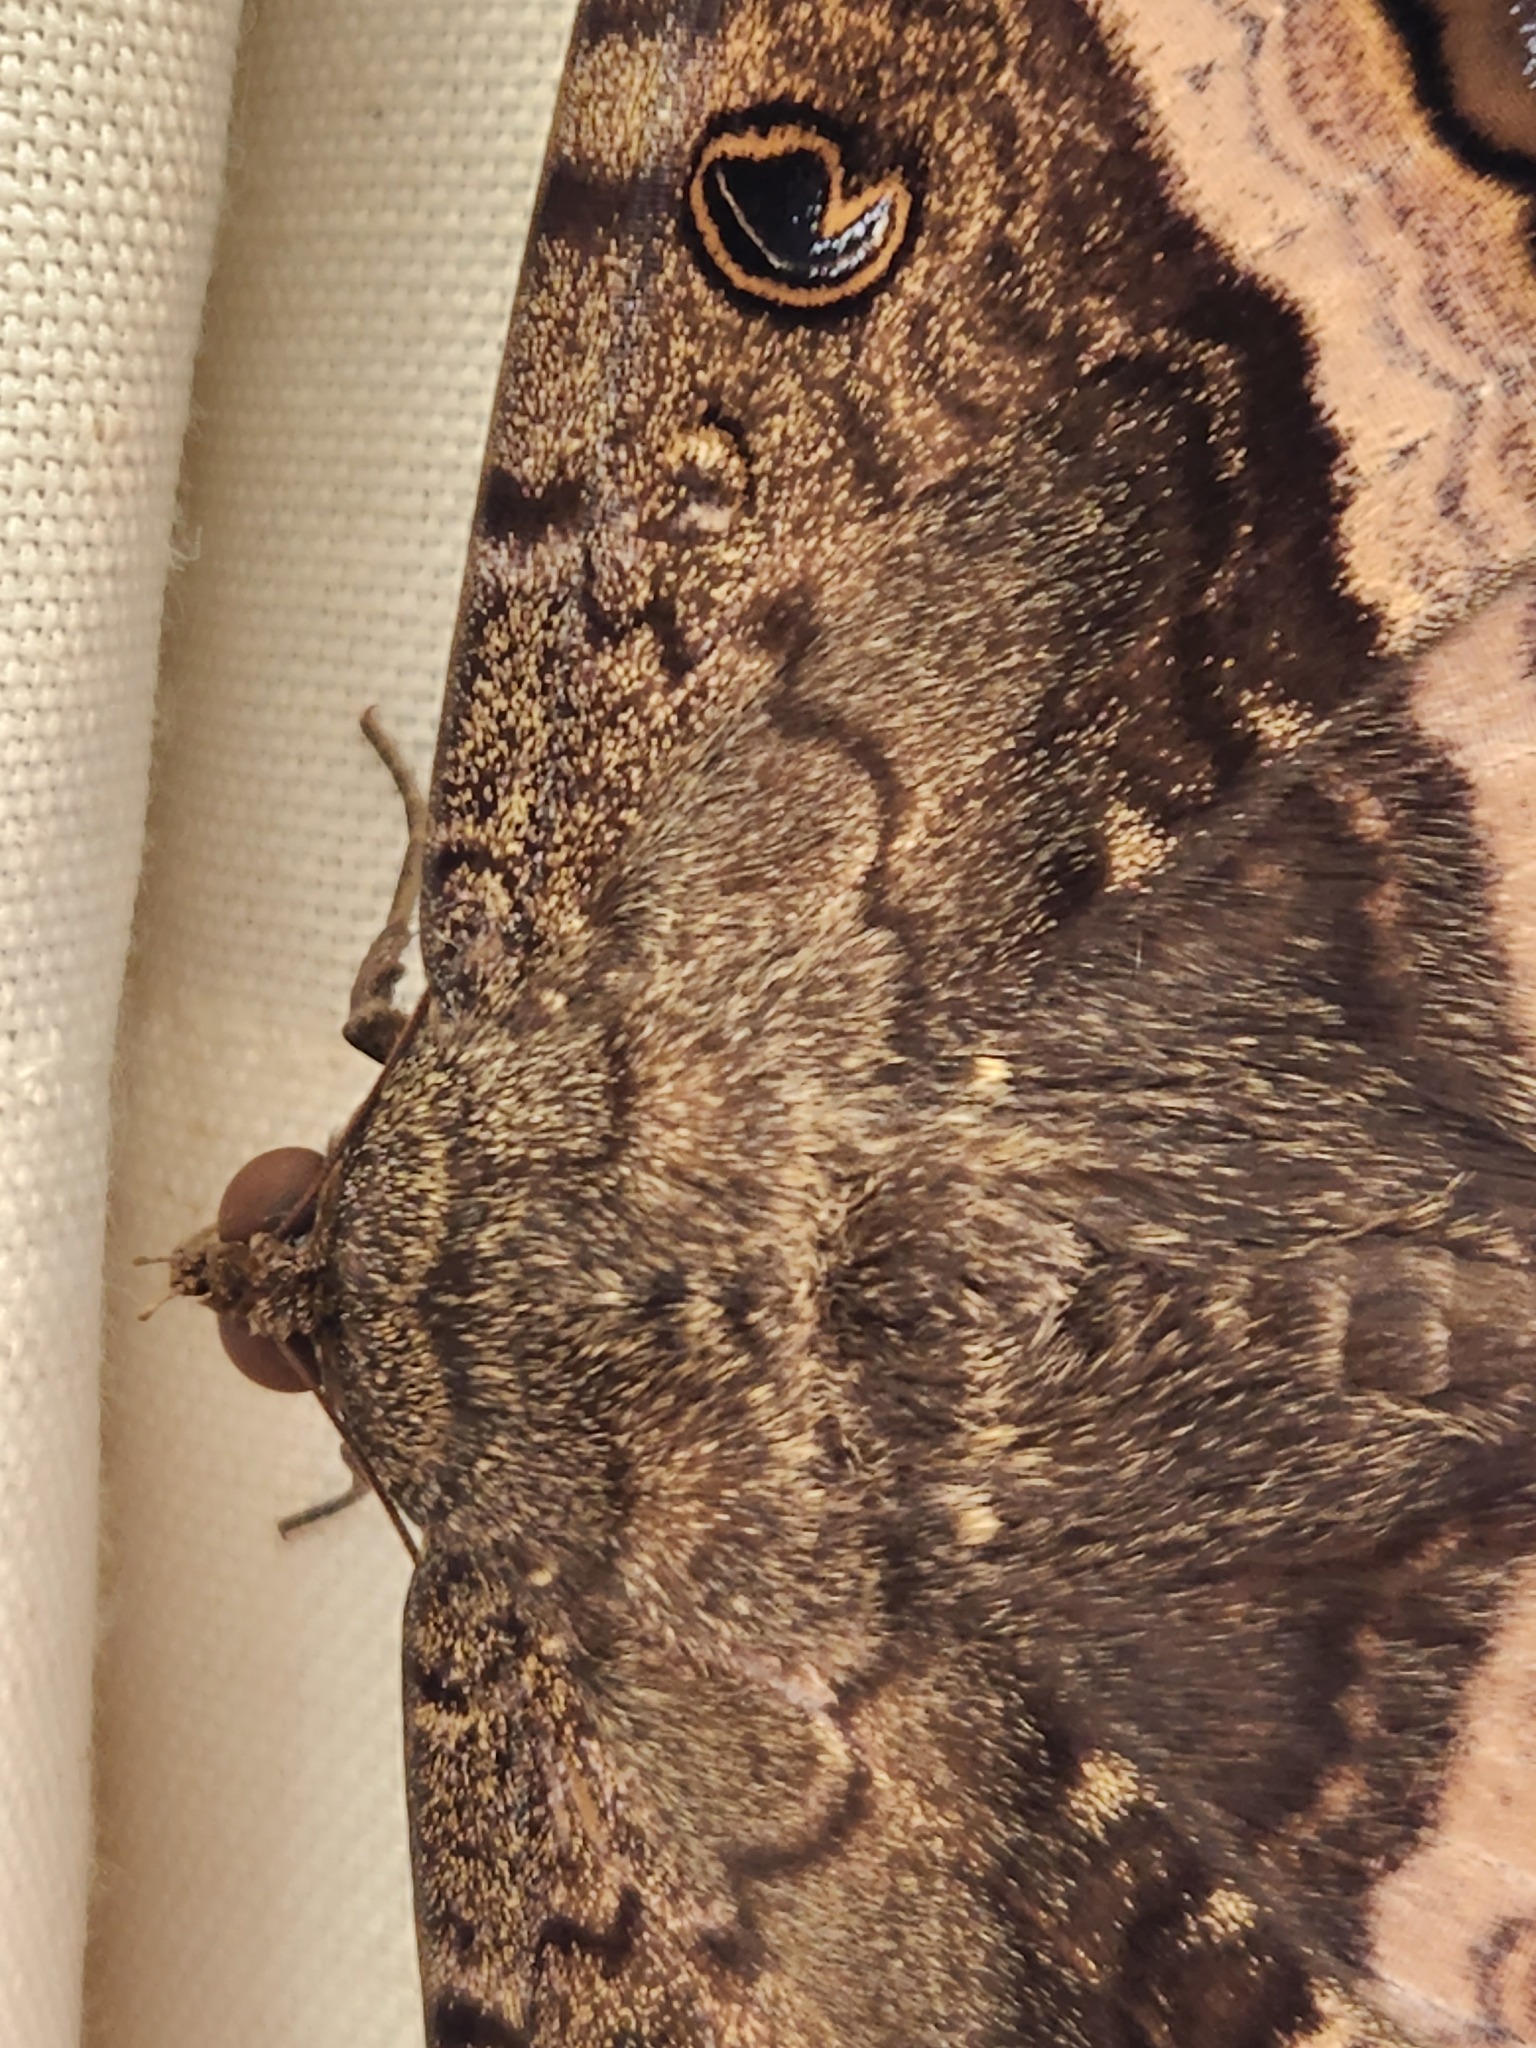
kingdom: Animalia
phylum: Arthropoda
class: Insecta
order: Lepidoptera
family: Erebidae
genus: Ascalapha
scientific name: Ascalapha odorata
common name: Black witch
